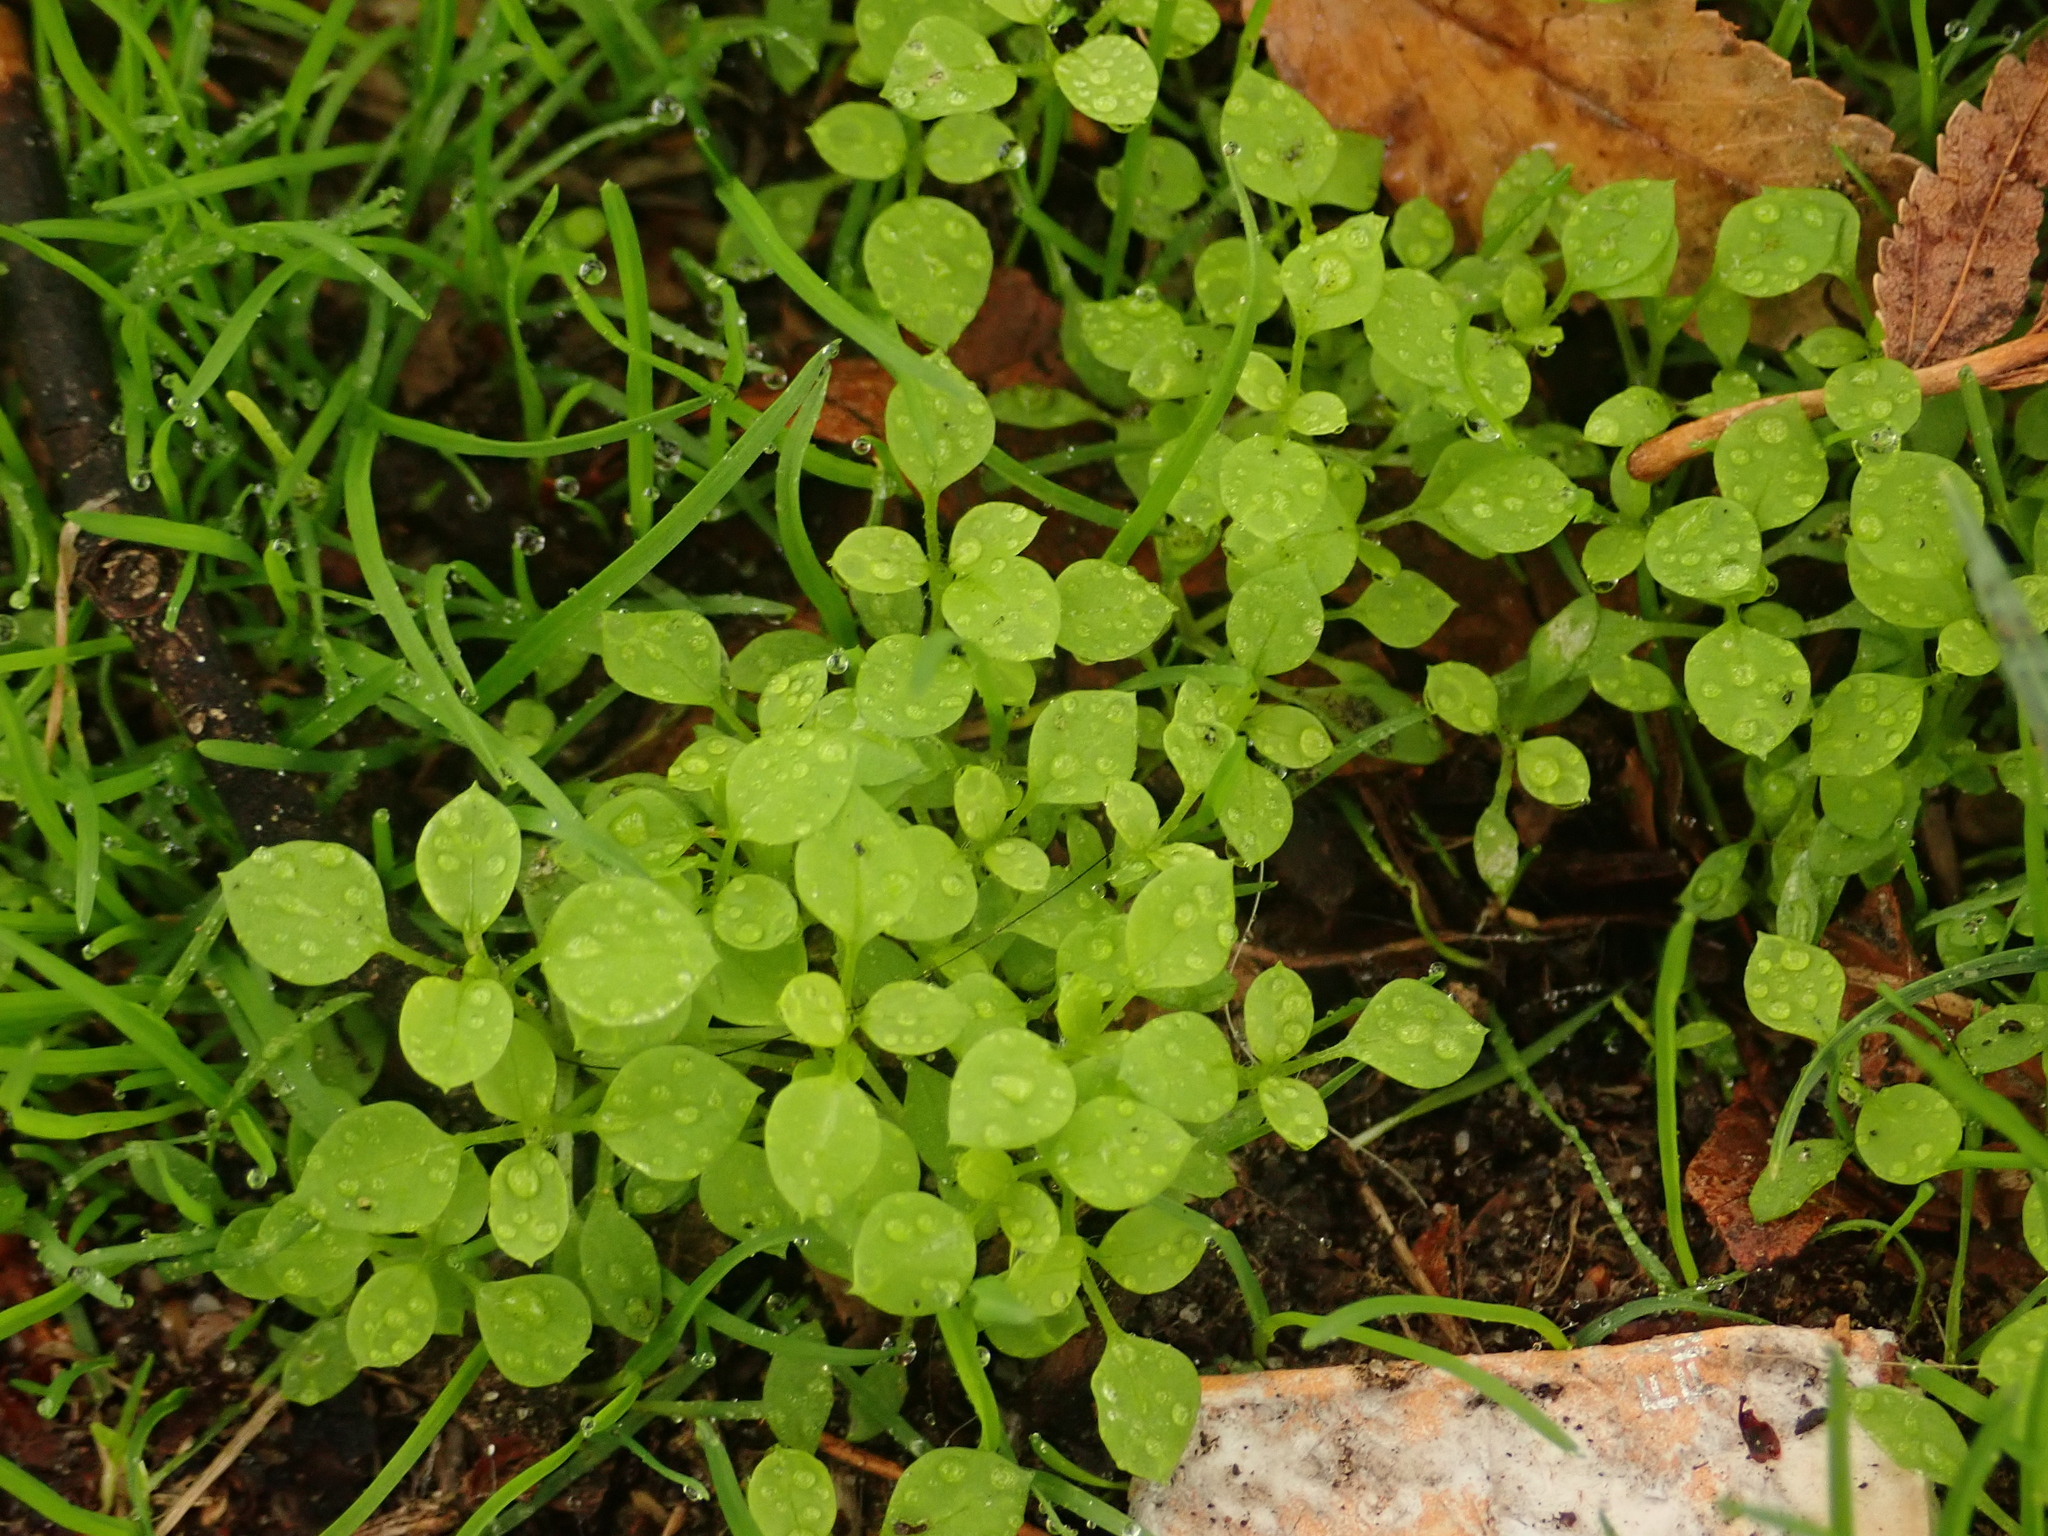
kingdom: Plantae
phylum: Tracheophyta
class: Magnoliopsida
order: Caryophyllales
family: Caryophyllaceae
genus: Stellaria
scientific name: Stellaria media
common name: Common chickweed
